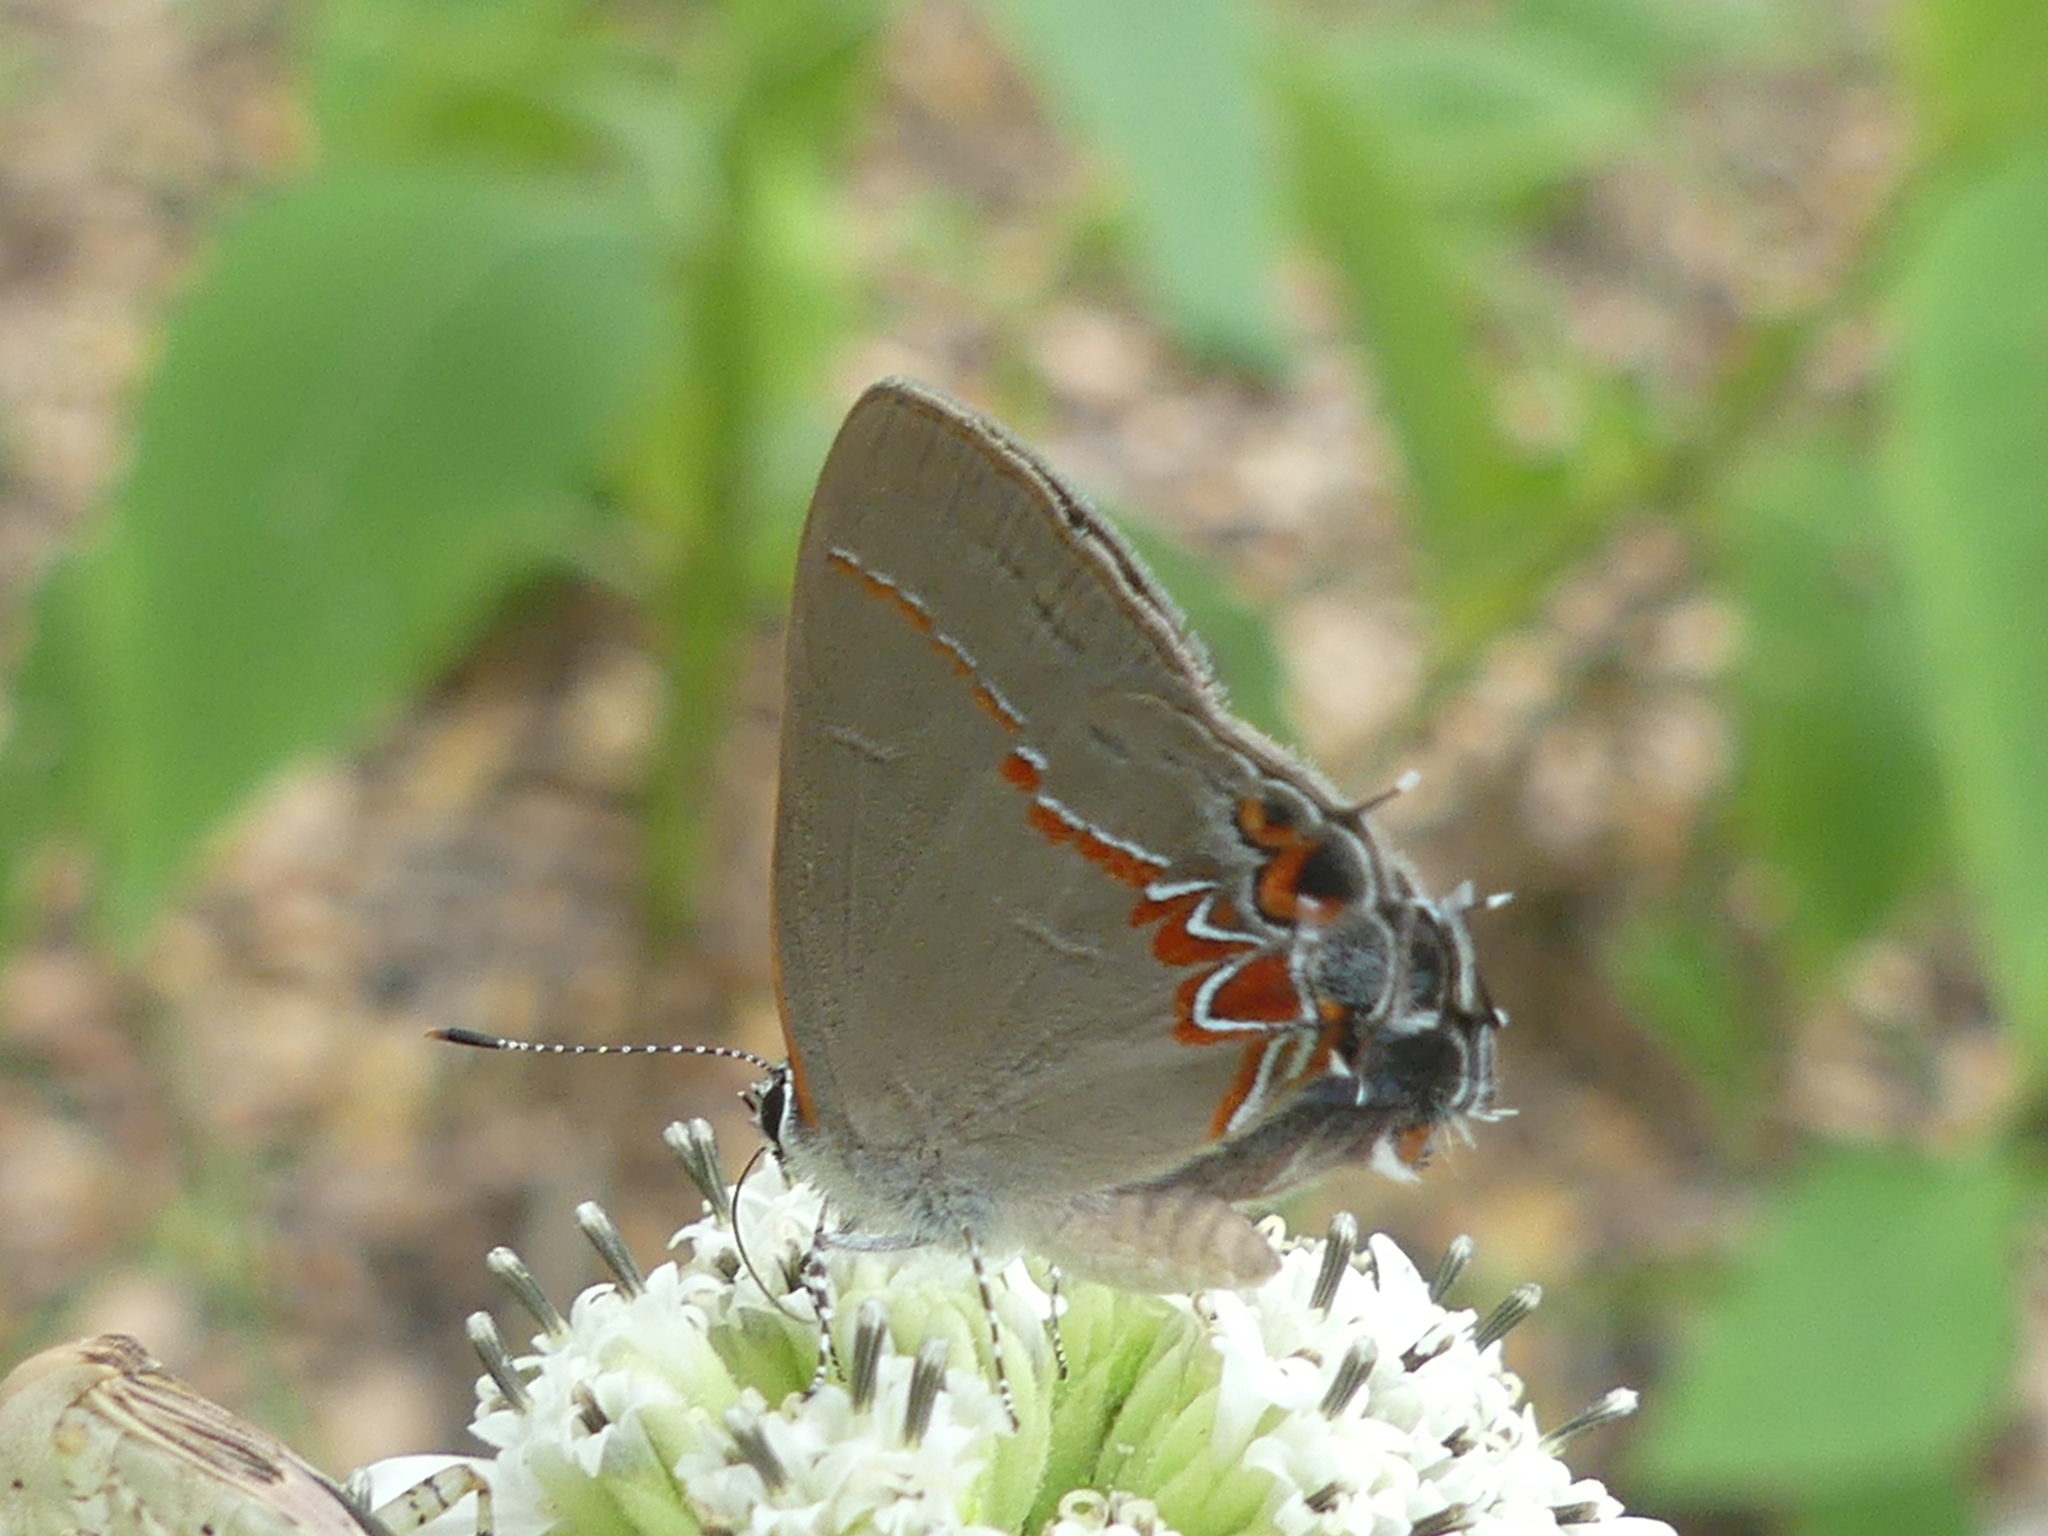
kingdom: Animalia
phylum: Arthropoda
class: Insecta
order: Lepidoptera
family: Lycaenidae
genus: Calycopis
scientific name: Calycopis isobeon
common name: Dusky-blue groundstreak
